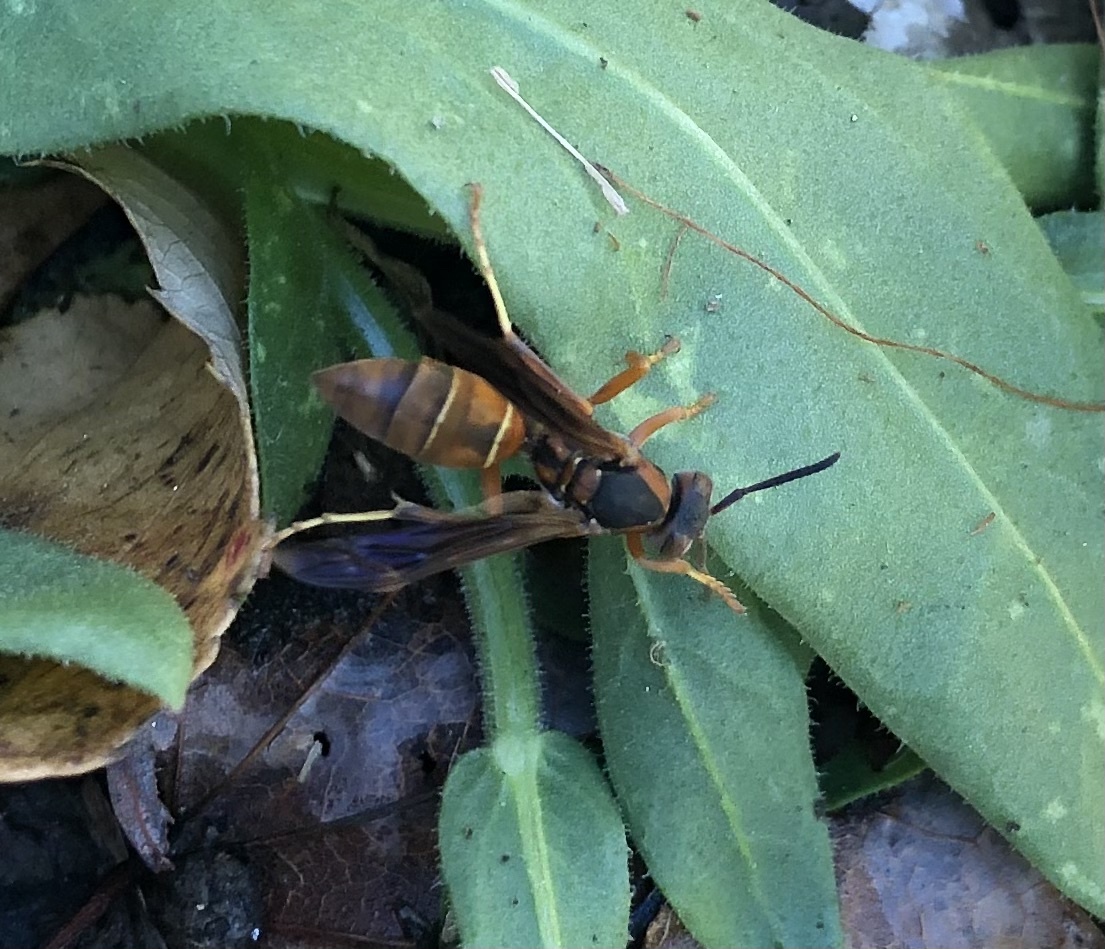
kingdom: Animalia
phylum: Arthropoda
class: Insecta
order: Hymenoptera
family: Eumenidae
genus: Polistes
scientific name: Polistes fuscatus
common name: Dark paper wasp
